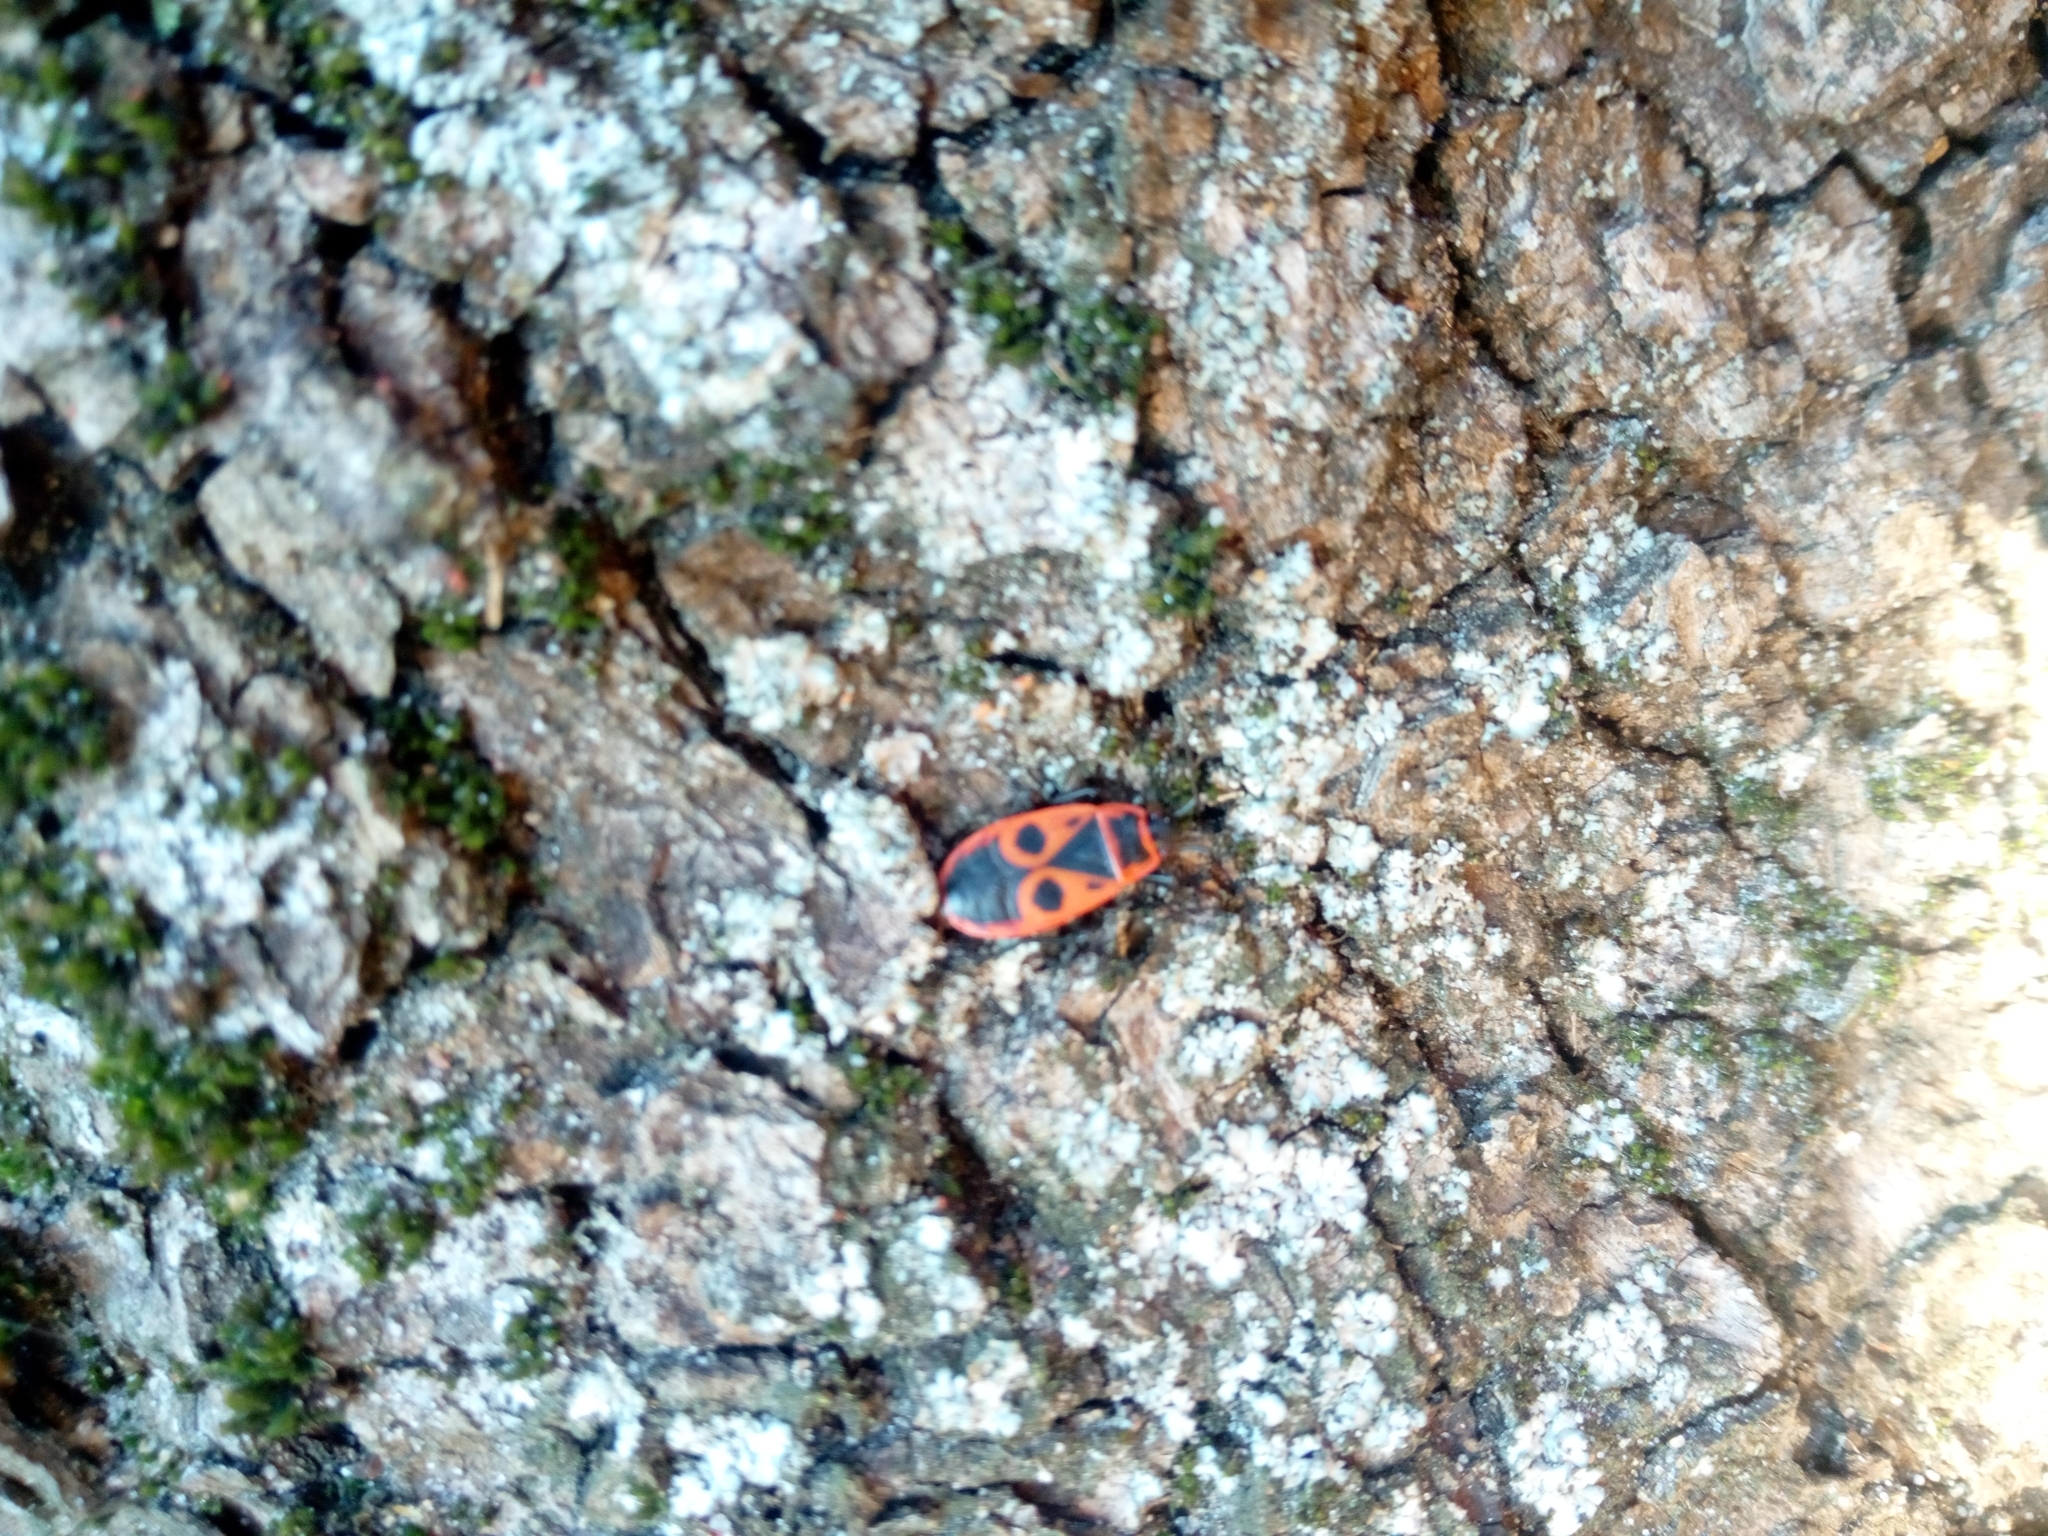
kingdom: Animalia
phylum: Arthropoda
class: Insecta
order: Hemiptera
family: Pyrrhocoridae
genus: Pyrrhocoris
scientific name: Pyrrhocoris apterus
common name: Firebug
